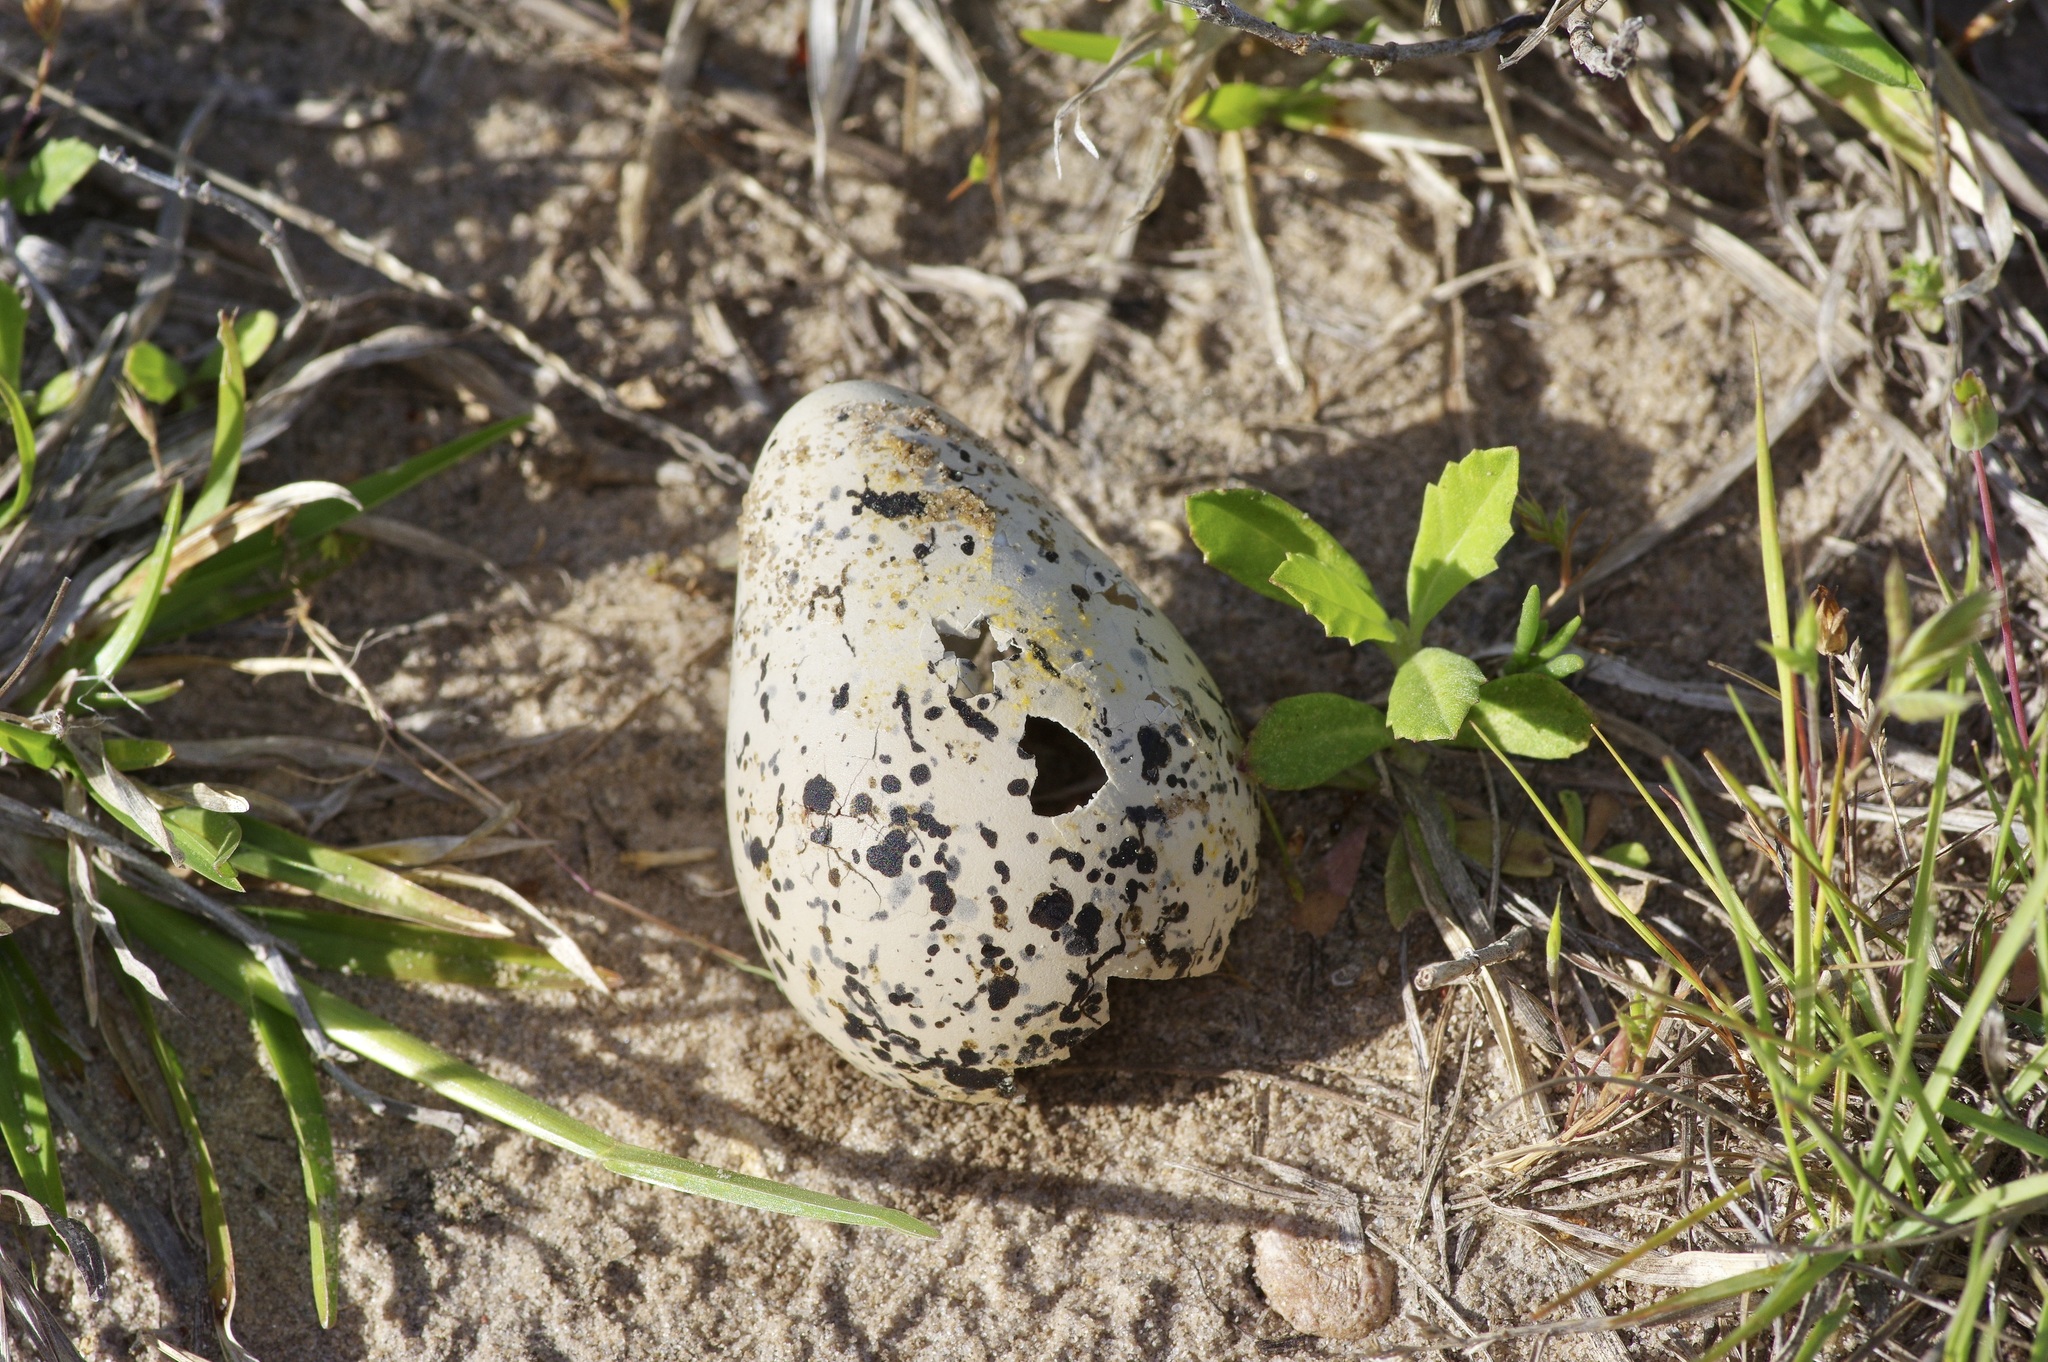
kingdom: Animalia
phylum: Chordata
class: Aves
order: Charadriiformes
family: Charadriidae
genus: Charadrius
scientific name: Charadrius vociferus
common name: Killdeer
